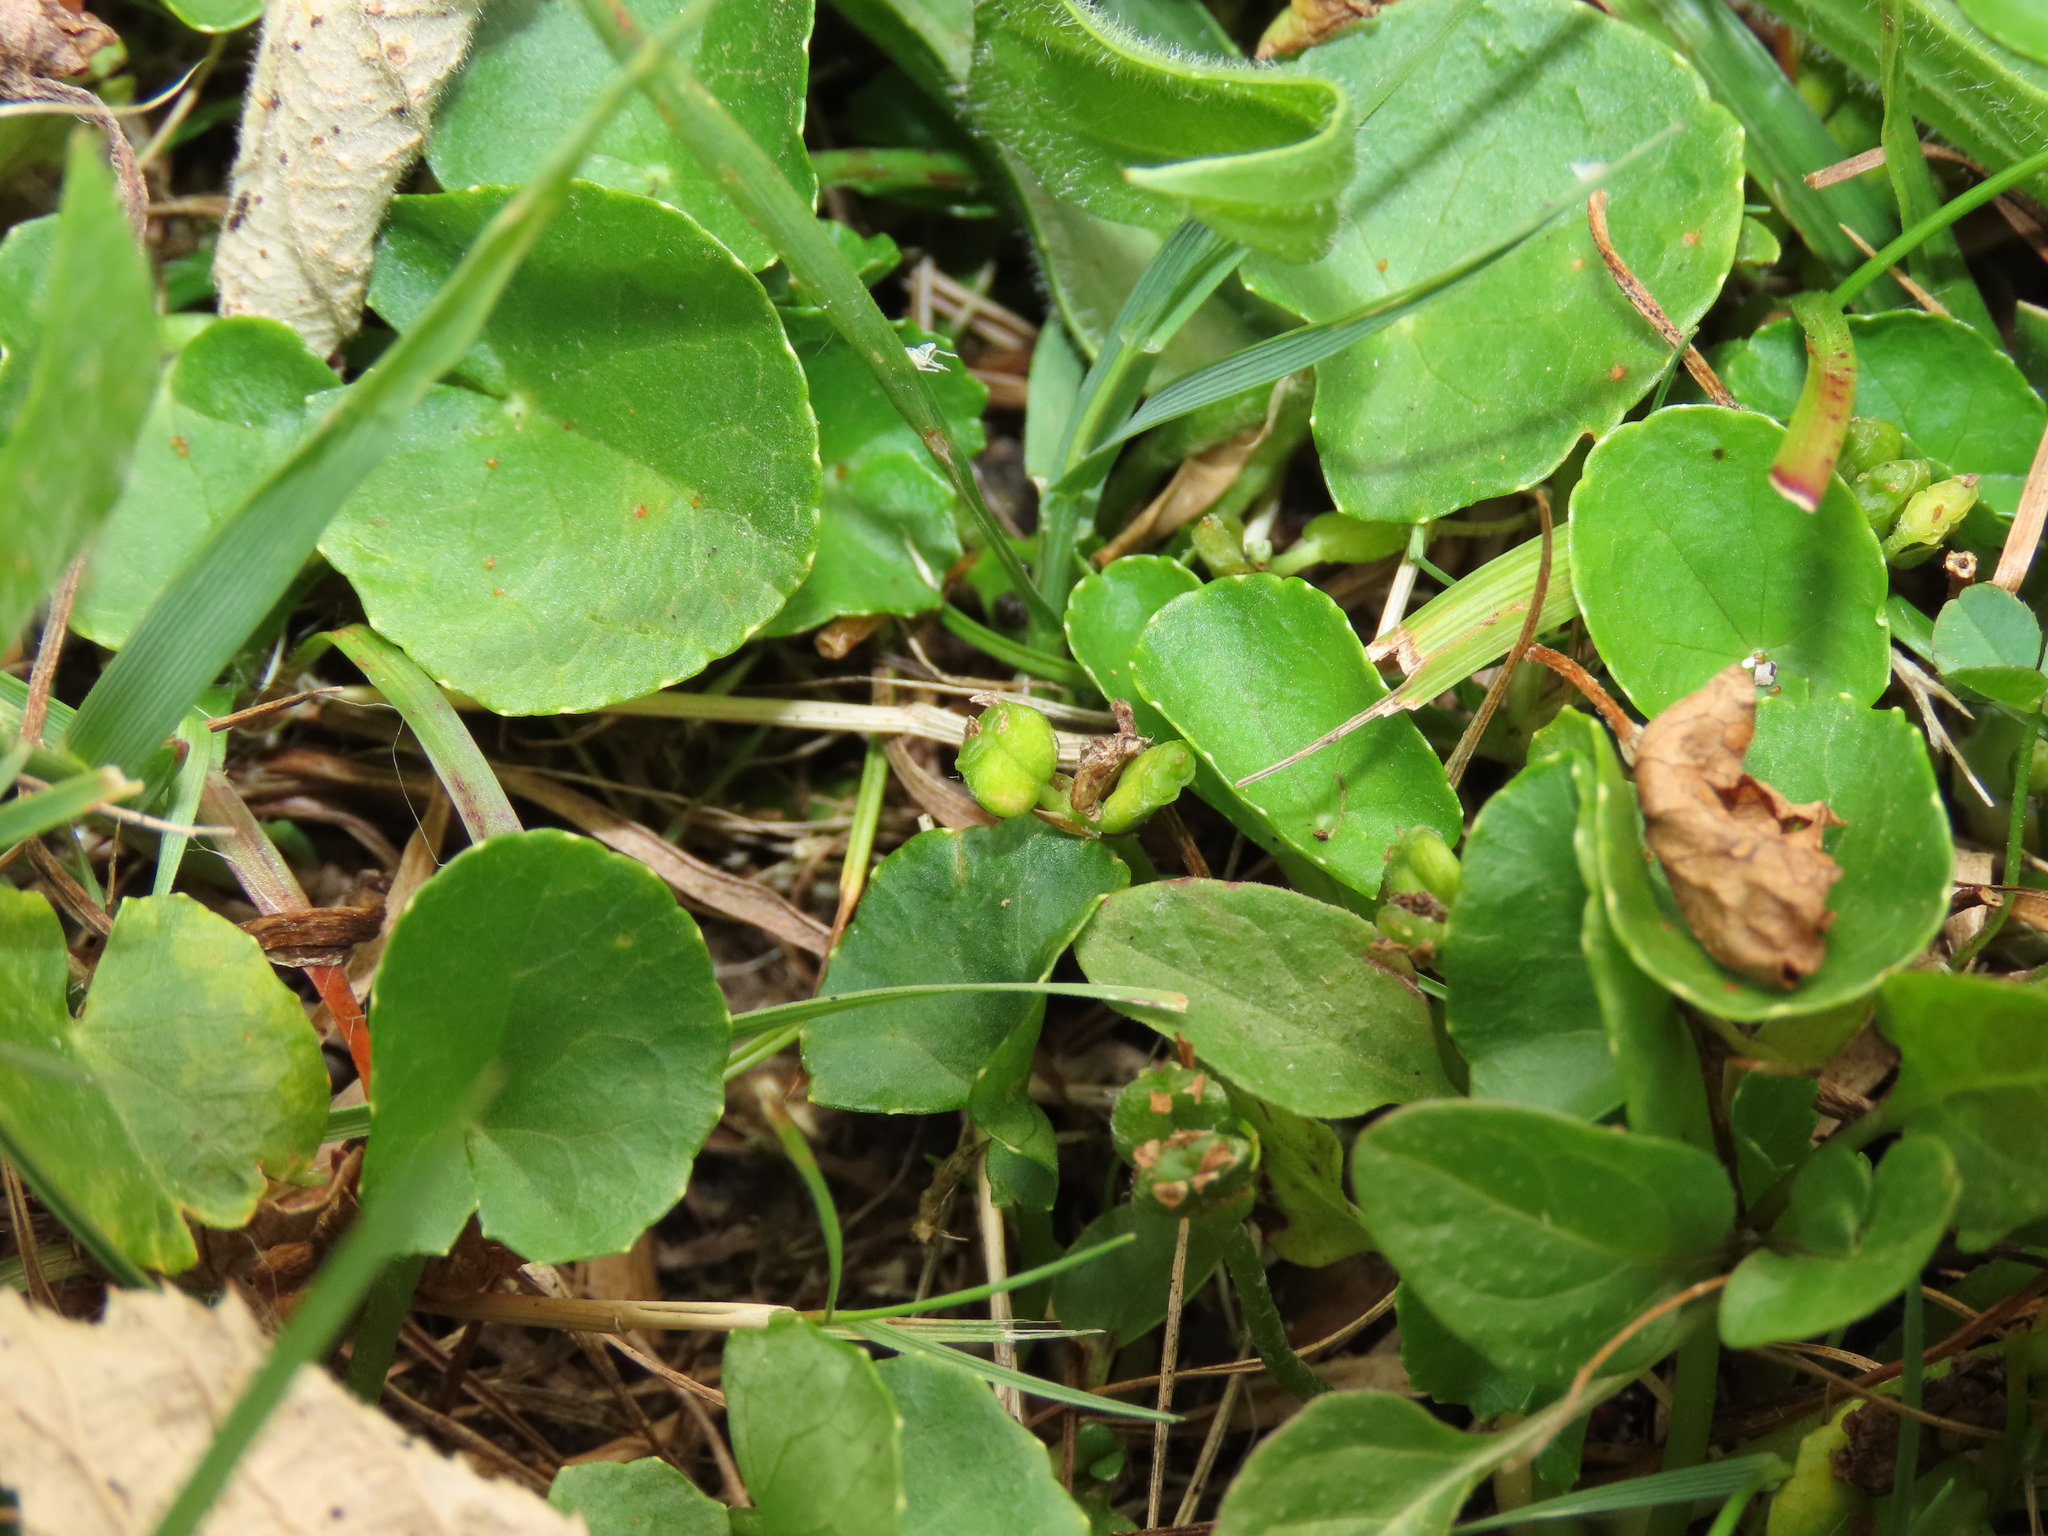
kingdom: Plantae
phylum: Tracheophyta
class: Magnoliopsida
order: Apiales
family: Apiaceae
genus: Centella
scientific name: Centella asiatica
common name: Spadeleaf
